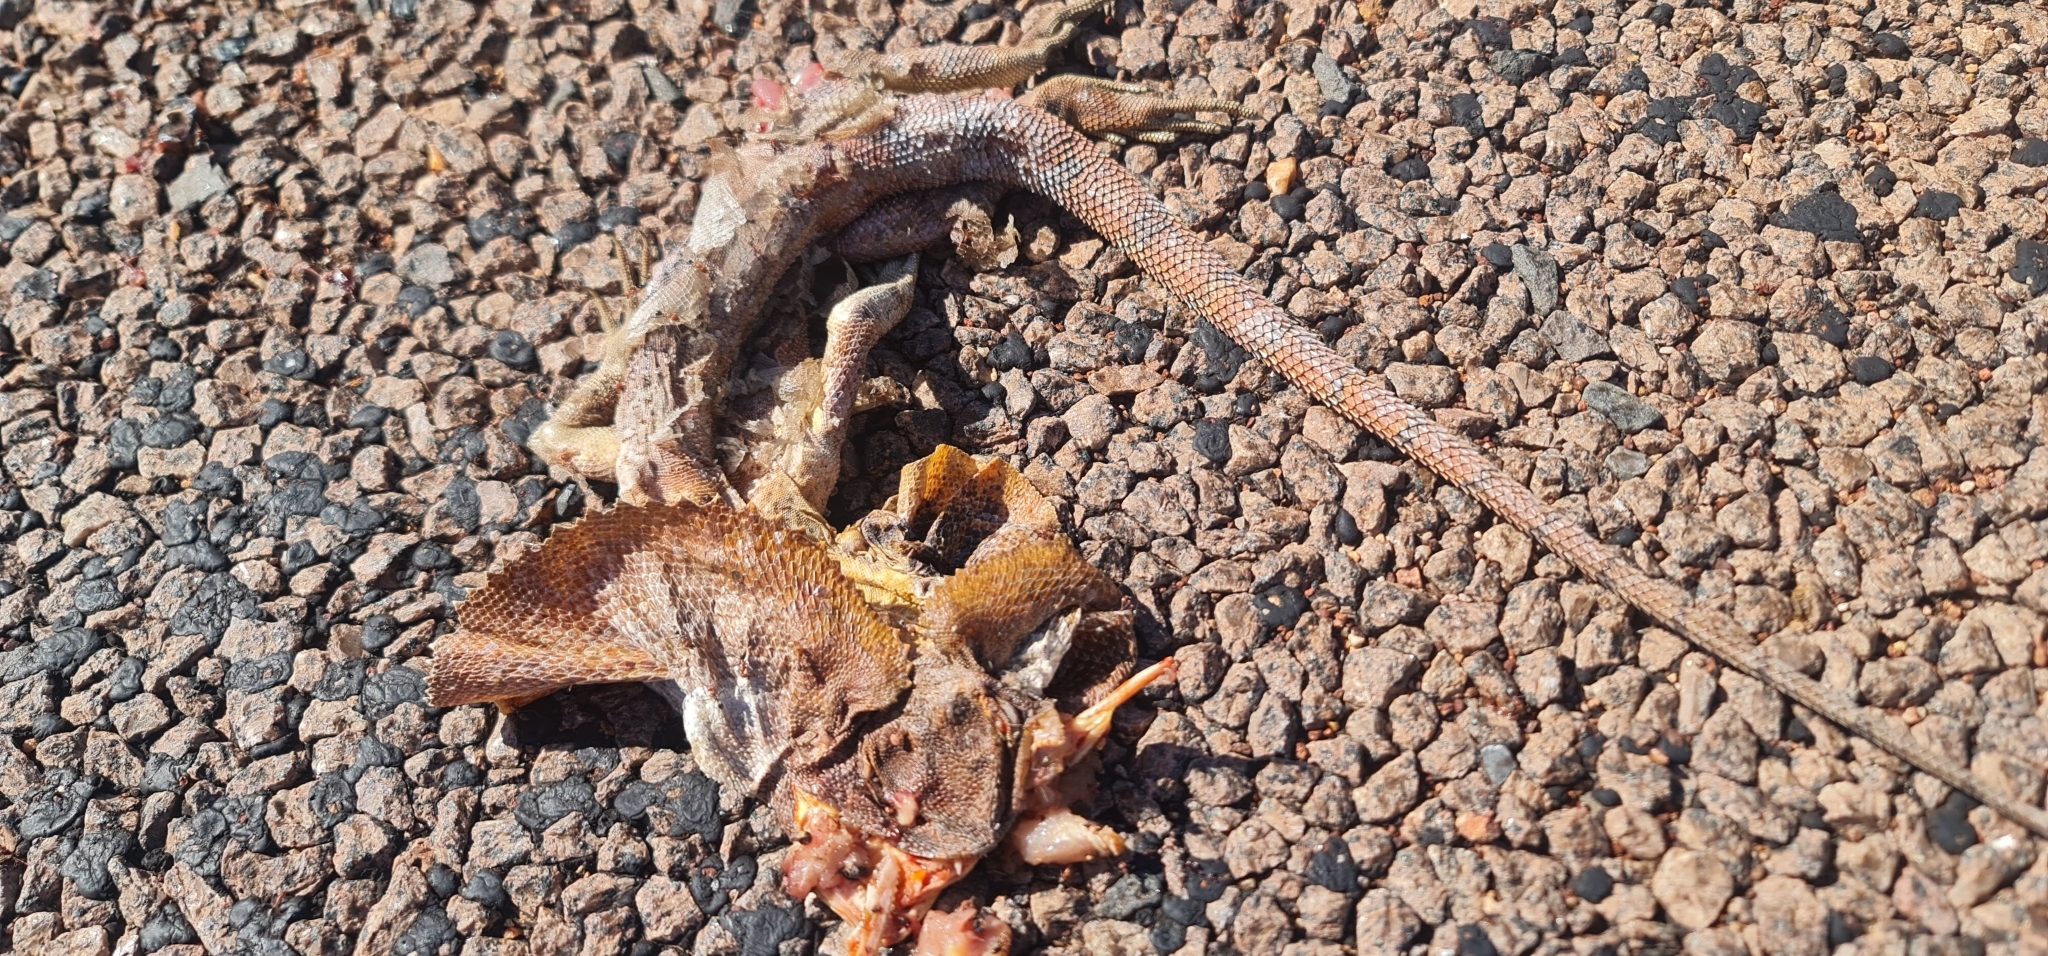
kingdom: Animalia
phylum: Chordata
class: Squamata
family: Agamidae
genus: Chlamydosaurus
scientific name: Chlamydosaurus kingii
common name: Frilled lizard
